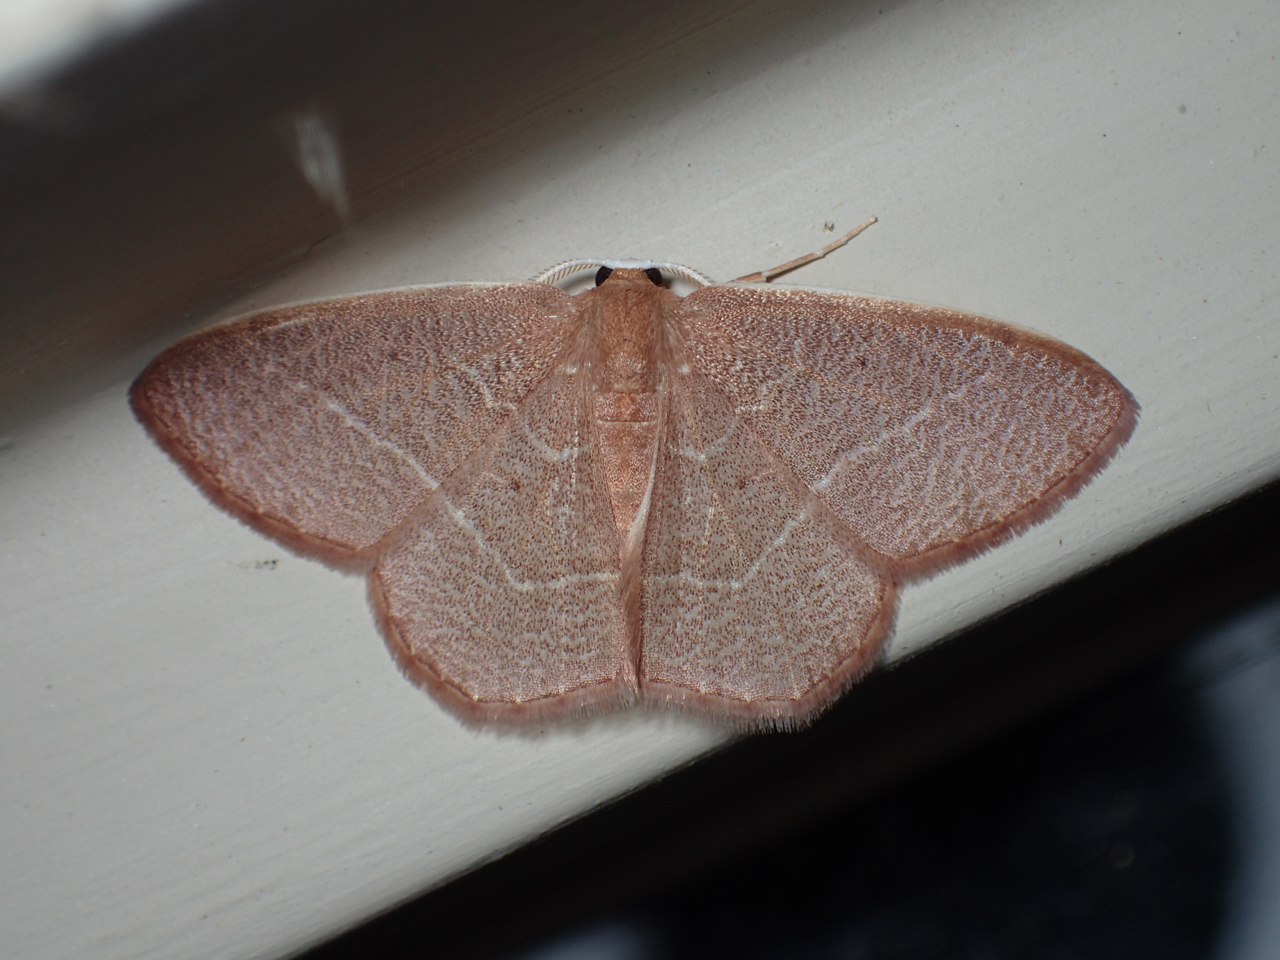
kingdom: Animalia
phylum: Arthropoda
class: Insecta
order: Lepidoptera
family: Geometridae
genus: Nemoria
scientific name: Nemoria bistriaria
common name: Red-fringed emerald
